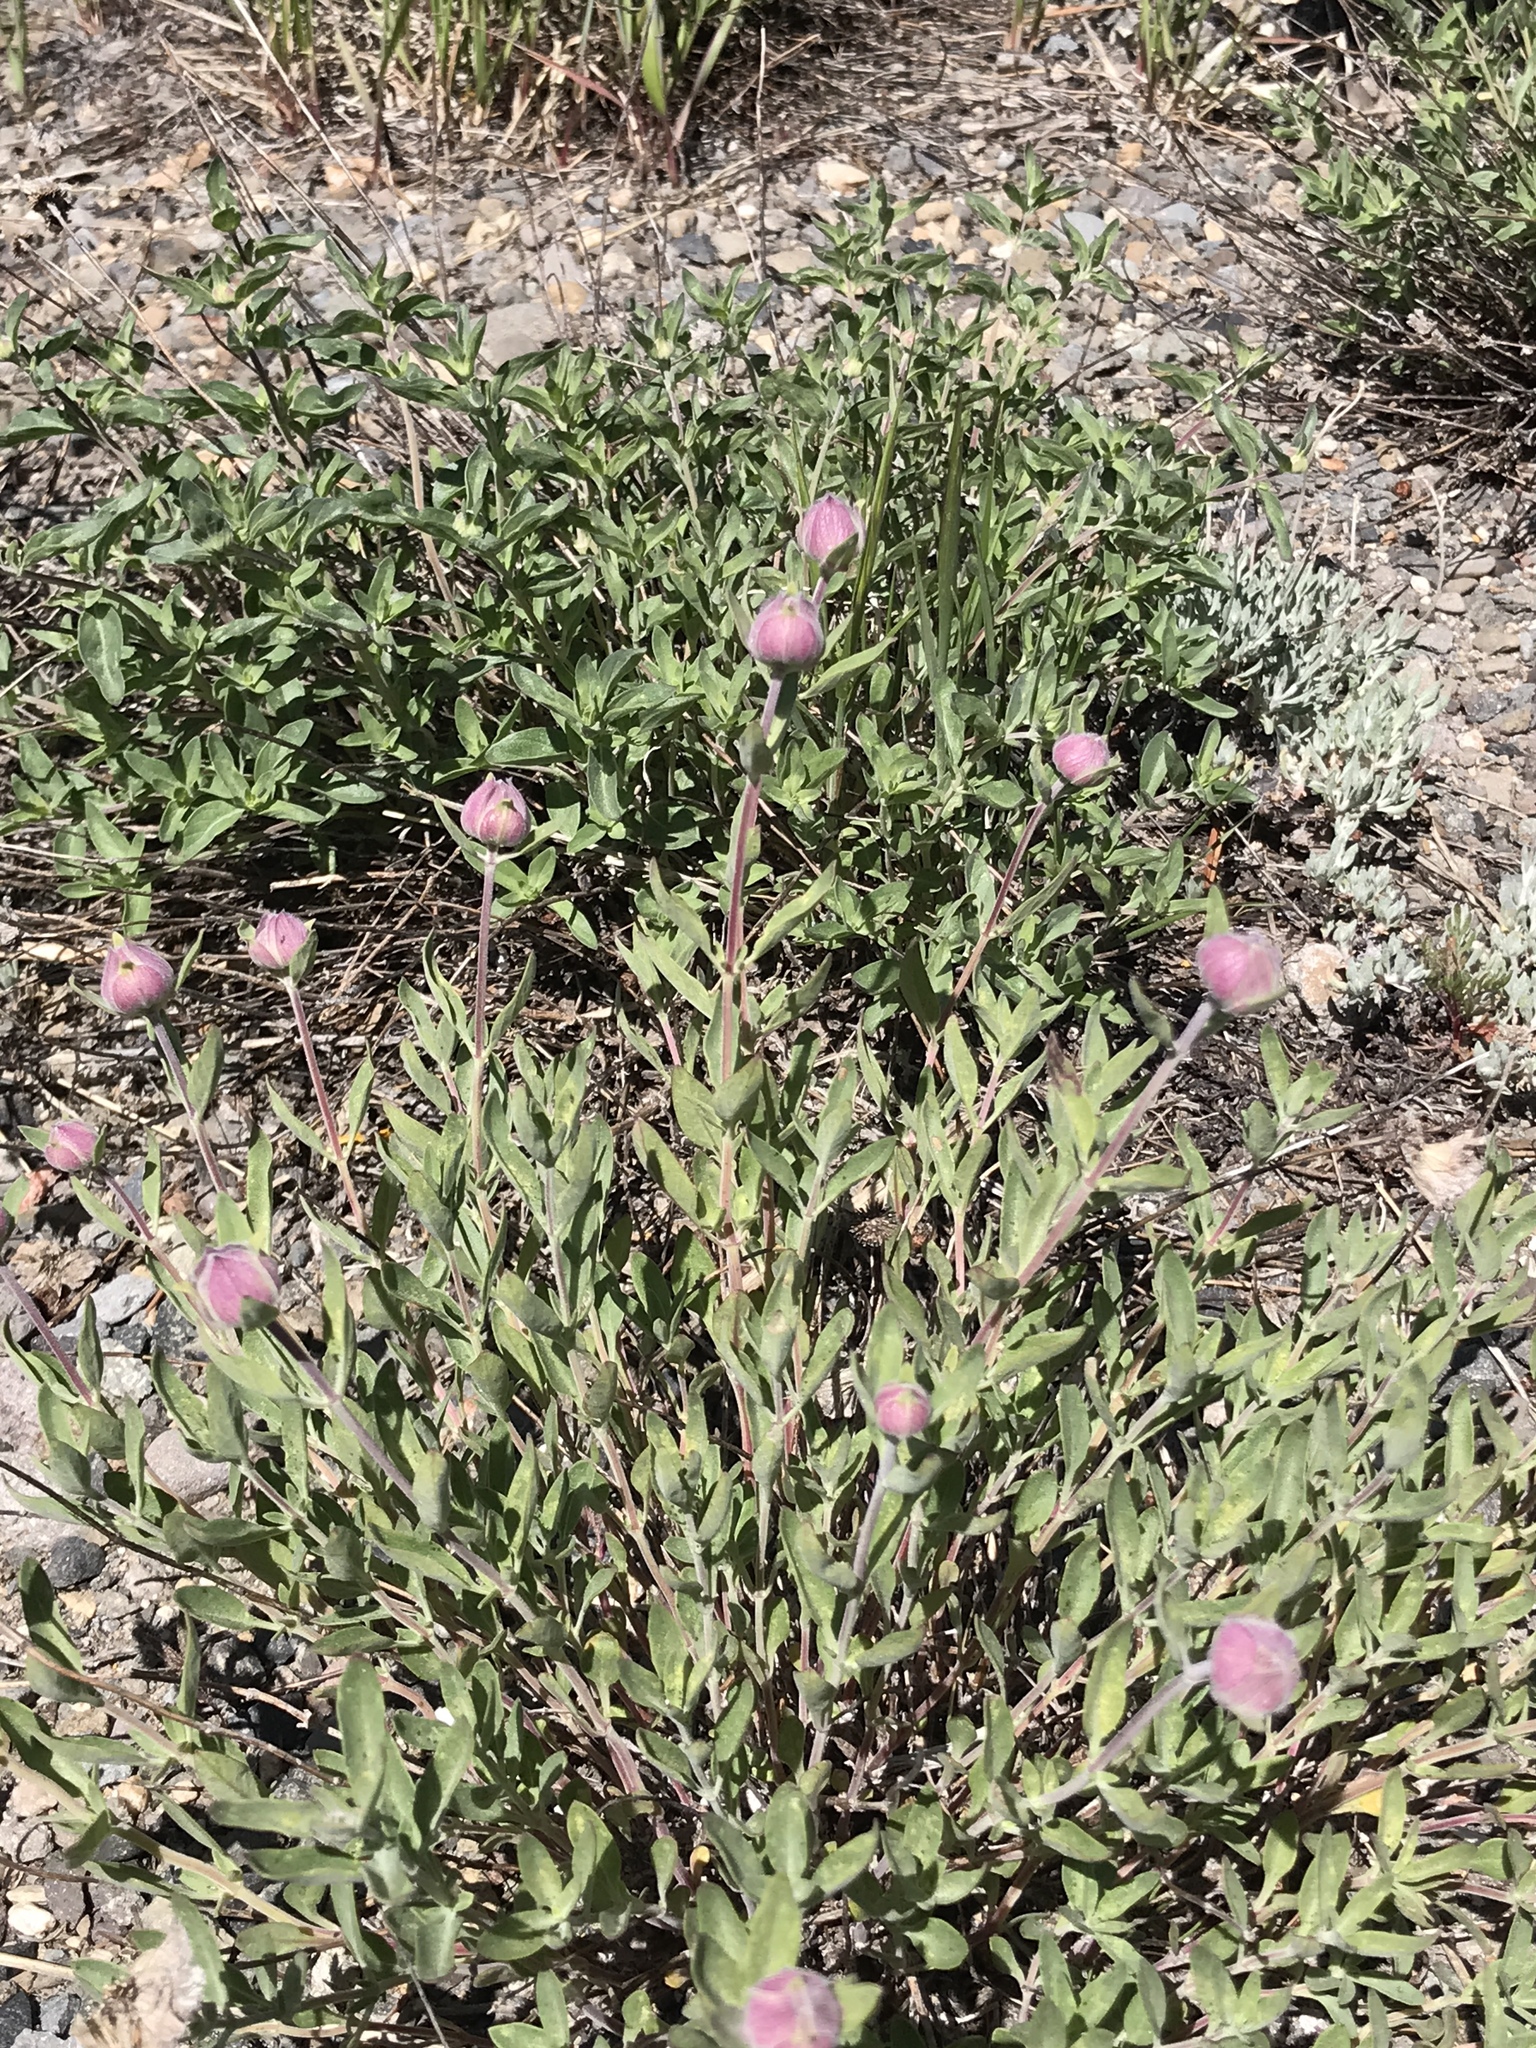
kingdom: Plantae
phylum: Tracheophyta
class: Magnoliopsida
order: Lamiales
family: Lamiaceae
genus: Monardella
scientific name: Monardella odoratissima
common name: Pacific monardella
